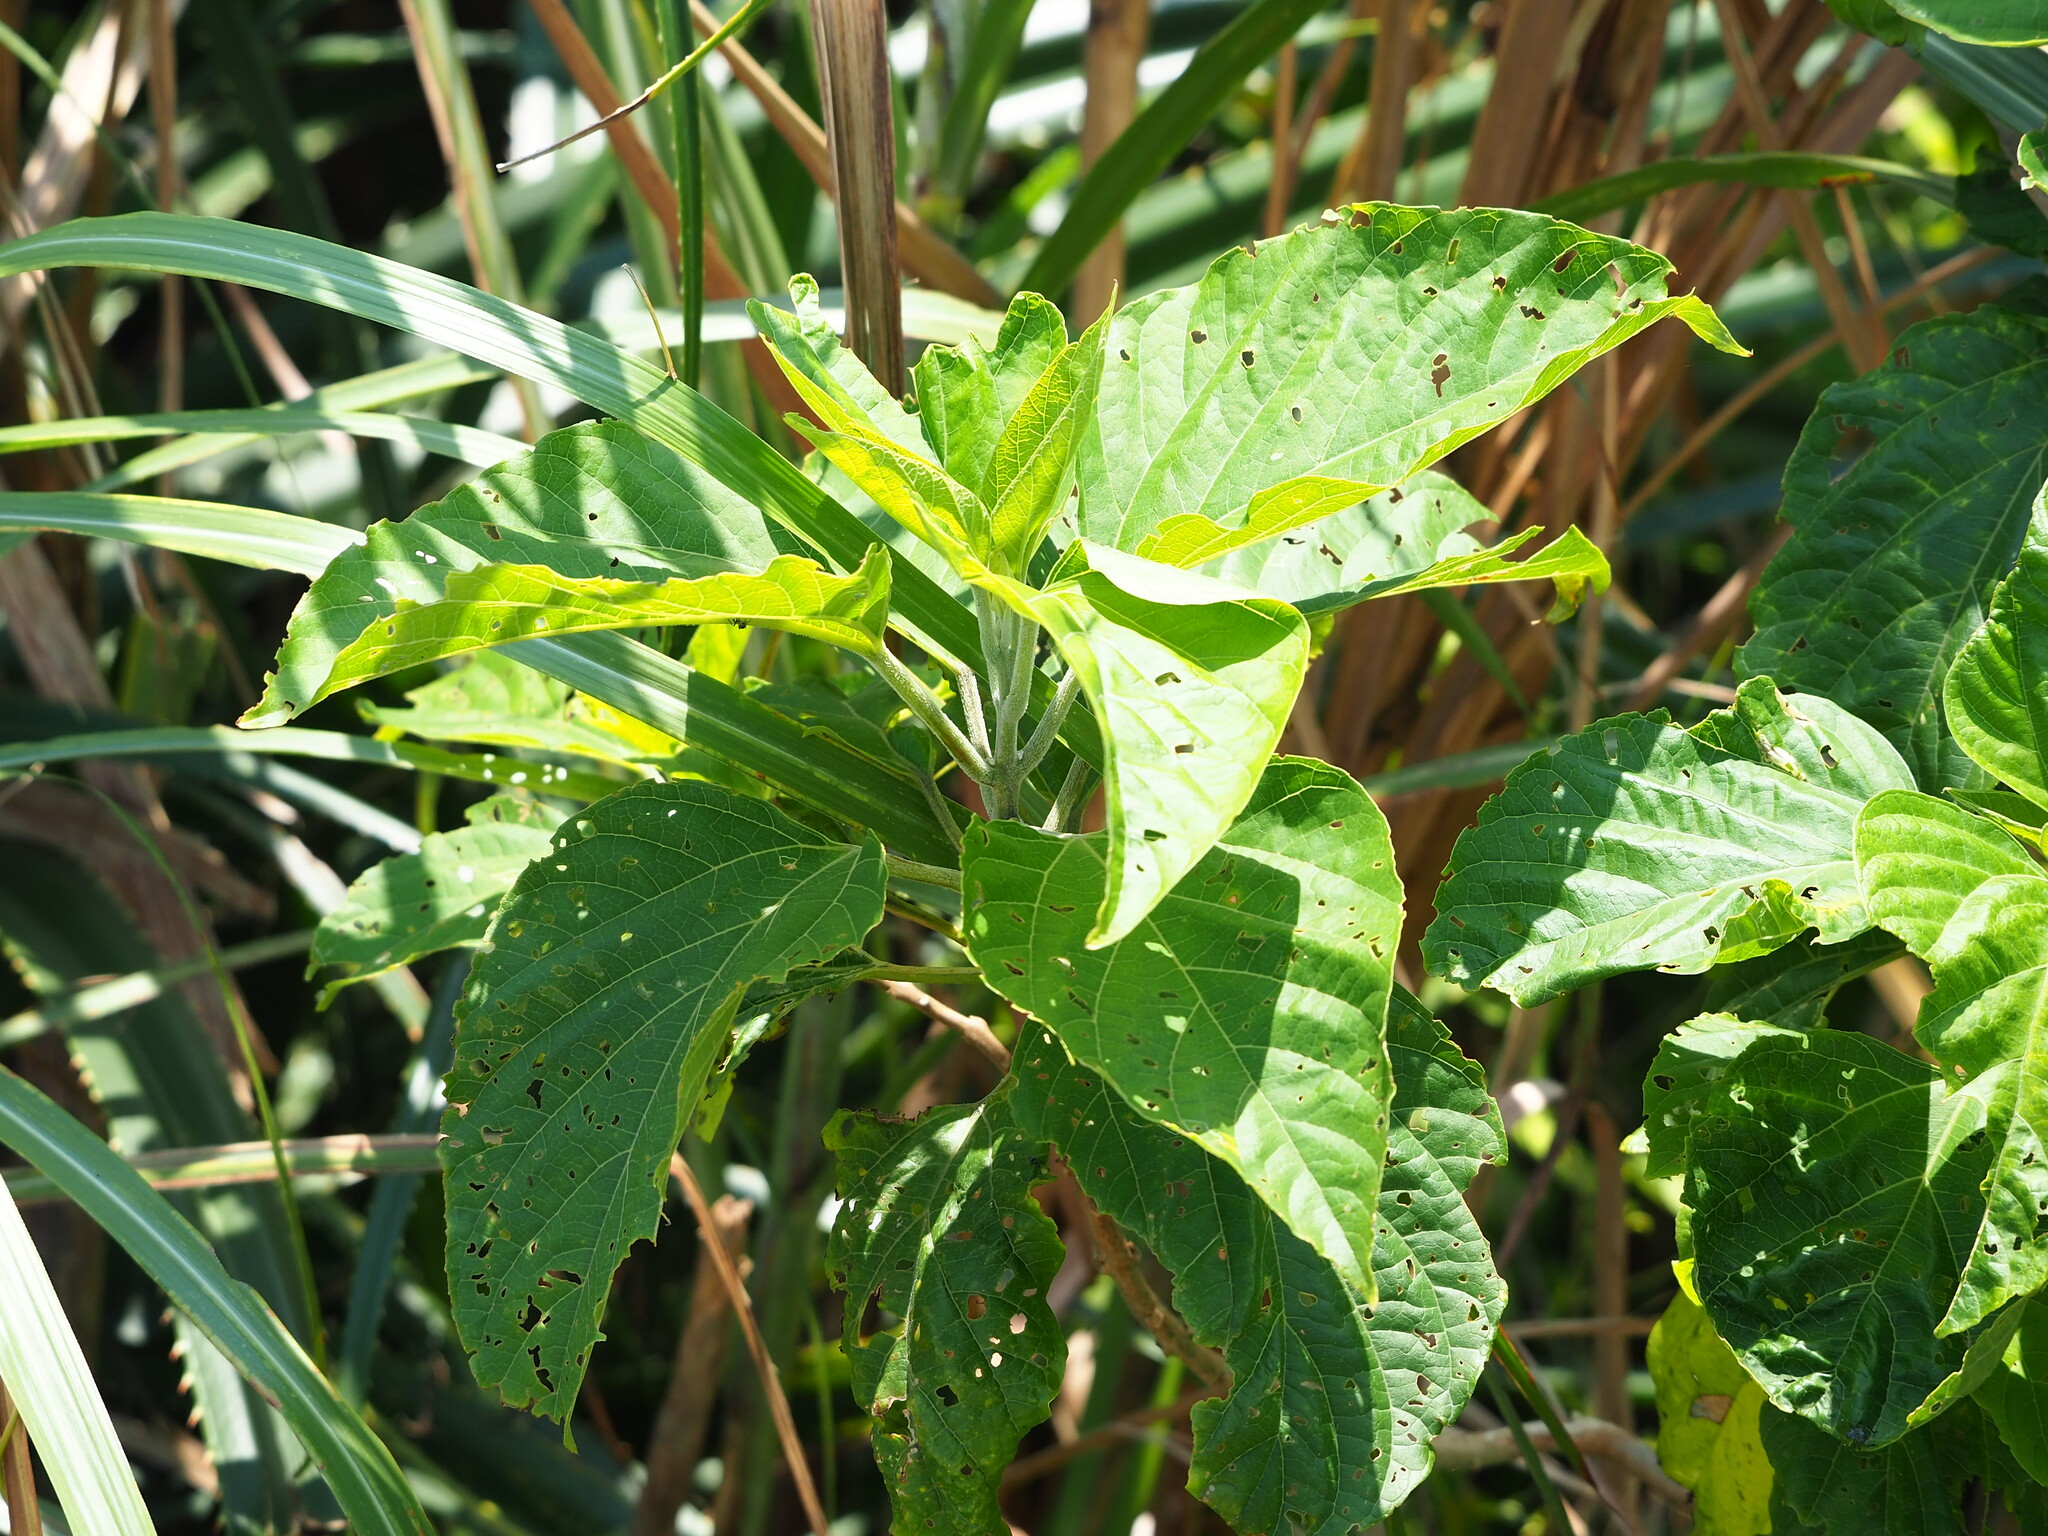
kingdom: Plantae
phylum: Tracheophyta
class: Magnoliopsida
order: Lamiales
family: Lamiaceae
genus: Clerodendrum
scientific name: Clerodendrum trichotomum
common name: Harlequin glorybower
